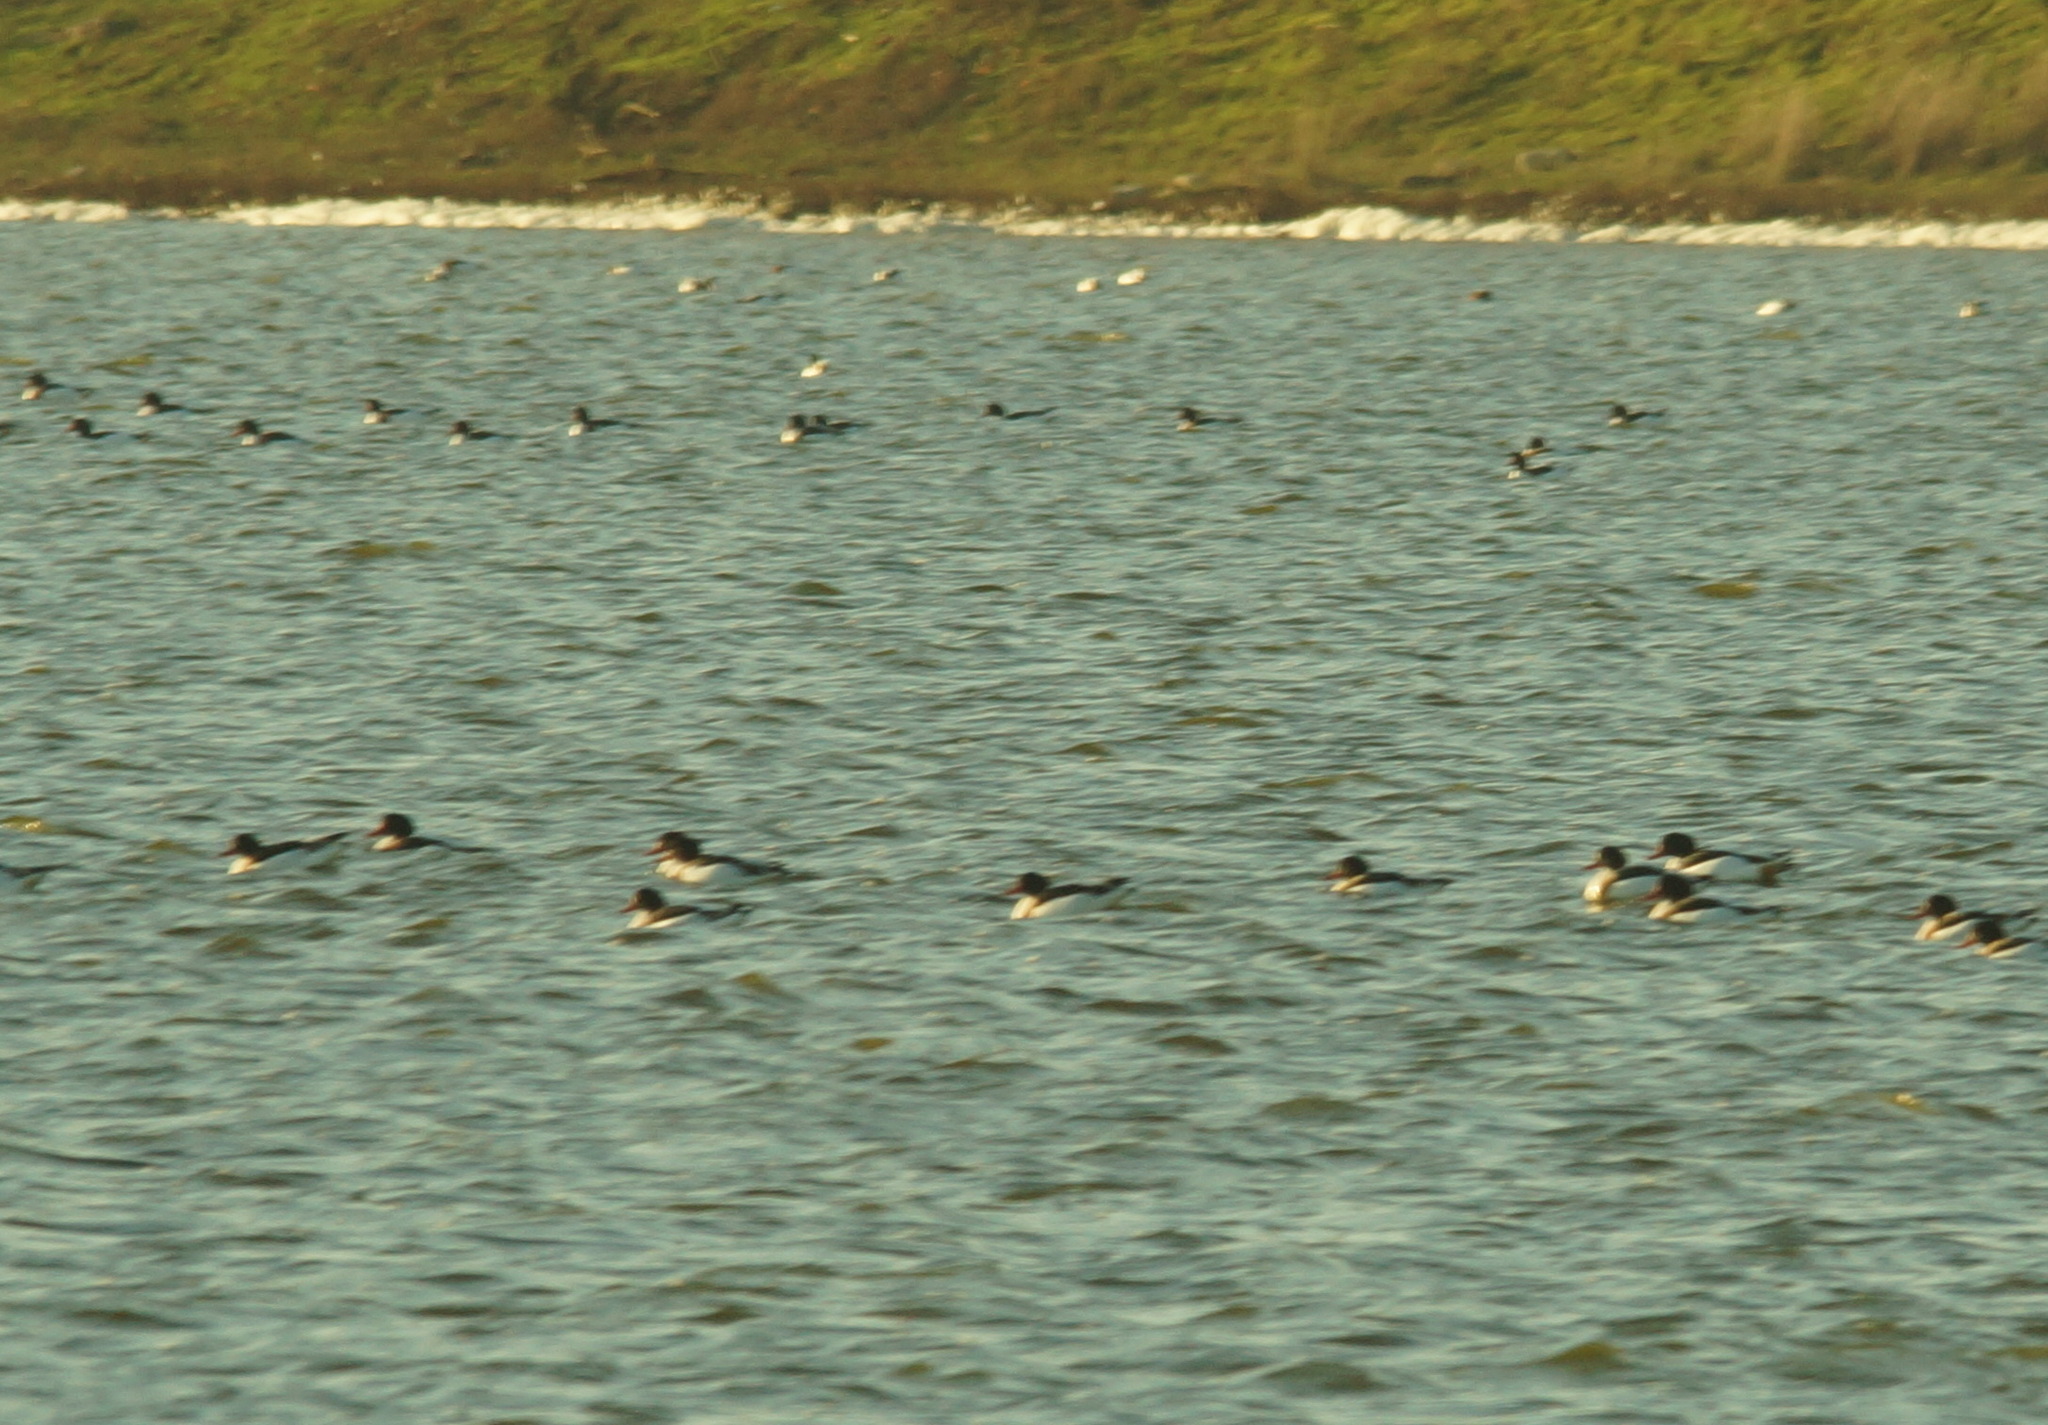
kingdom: Animalia
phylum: Chordata
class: Aves
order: Anseriformes
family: Anatidae
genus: Tadorna
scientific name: Tadorna tadorna
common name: Common shelduck
